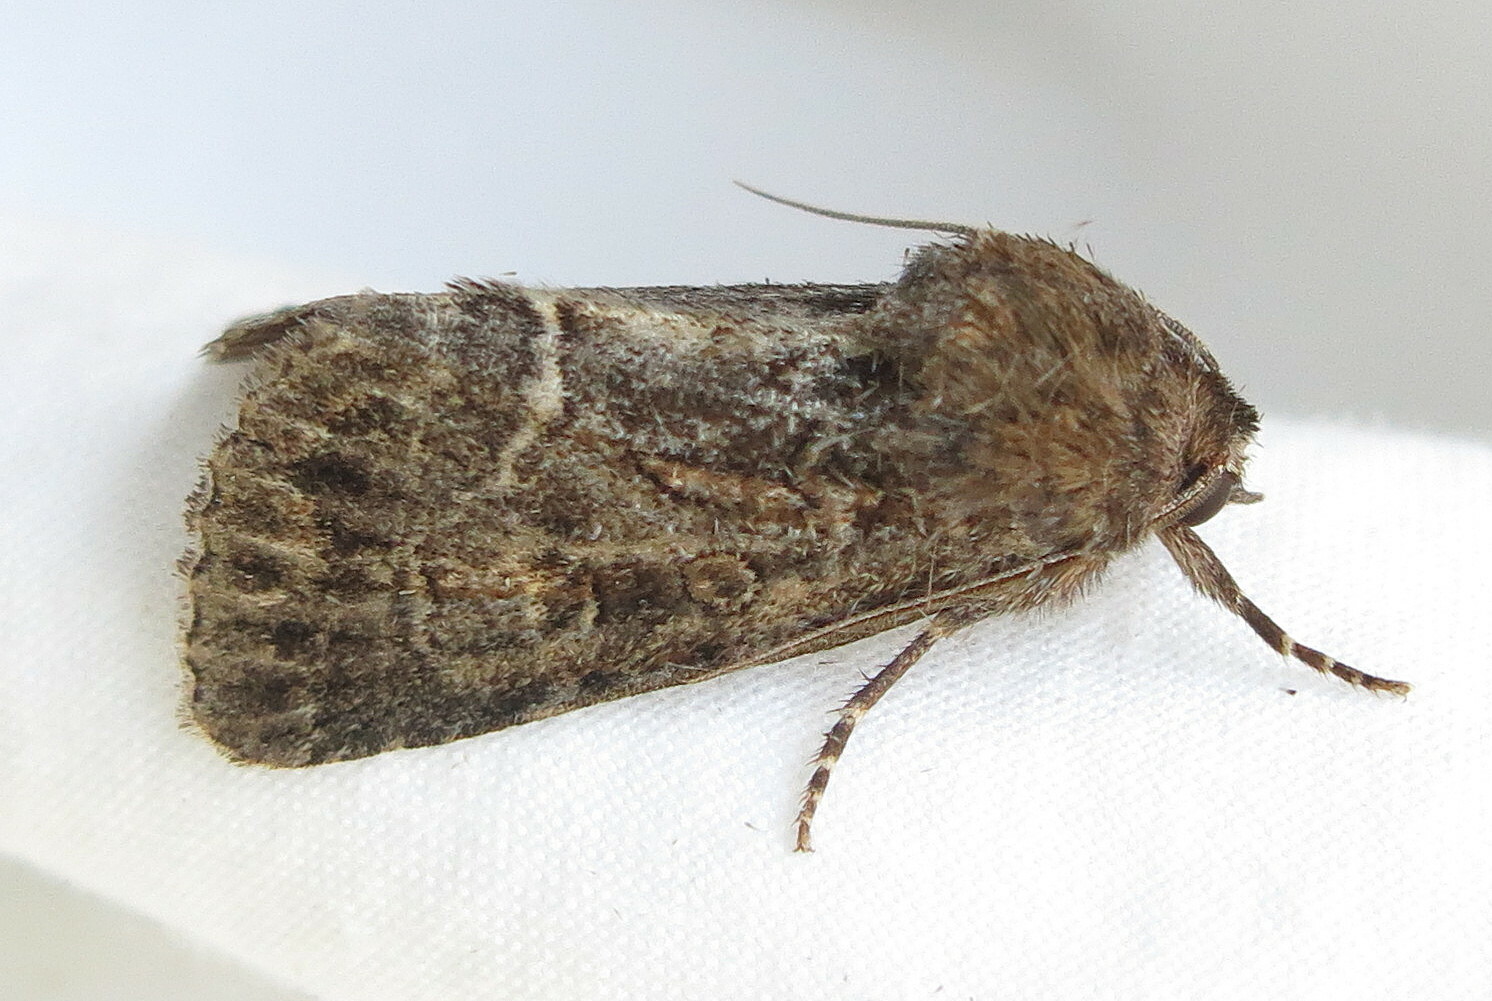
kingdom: Animalia
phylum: Arthropoda
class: Insecta
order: Lepidoptera
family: Noctuidae
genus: Thalpophila
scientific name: Thalpophila matura
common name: Straw underwing
